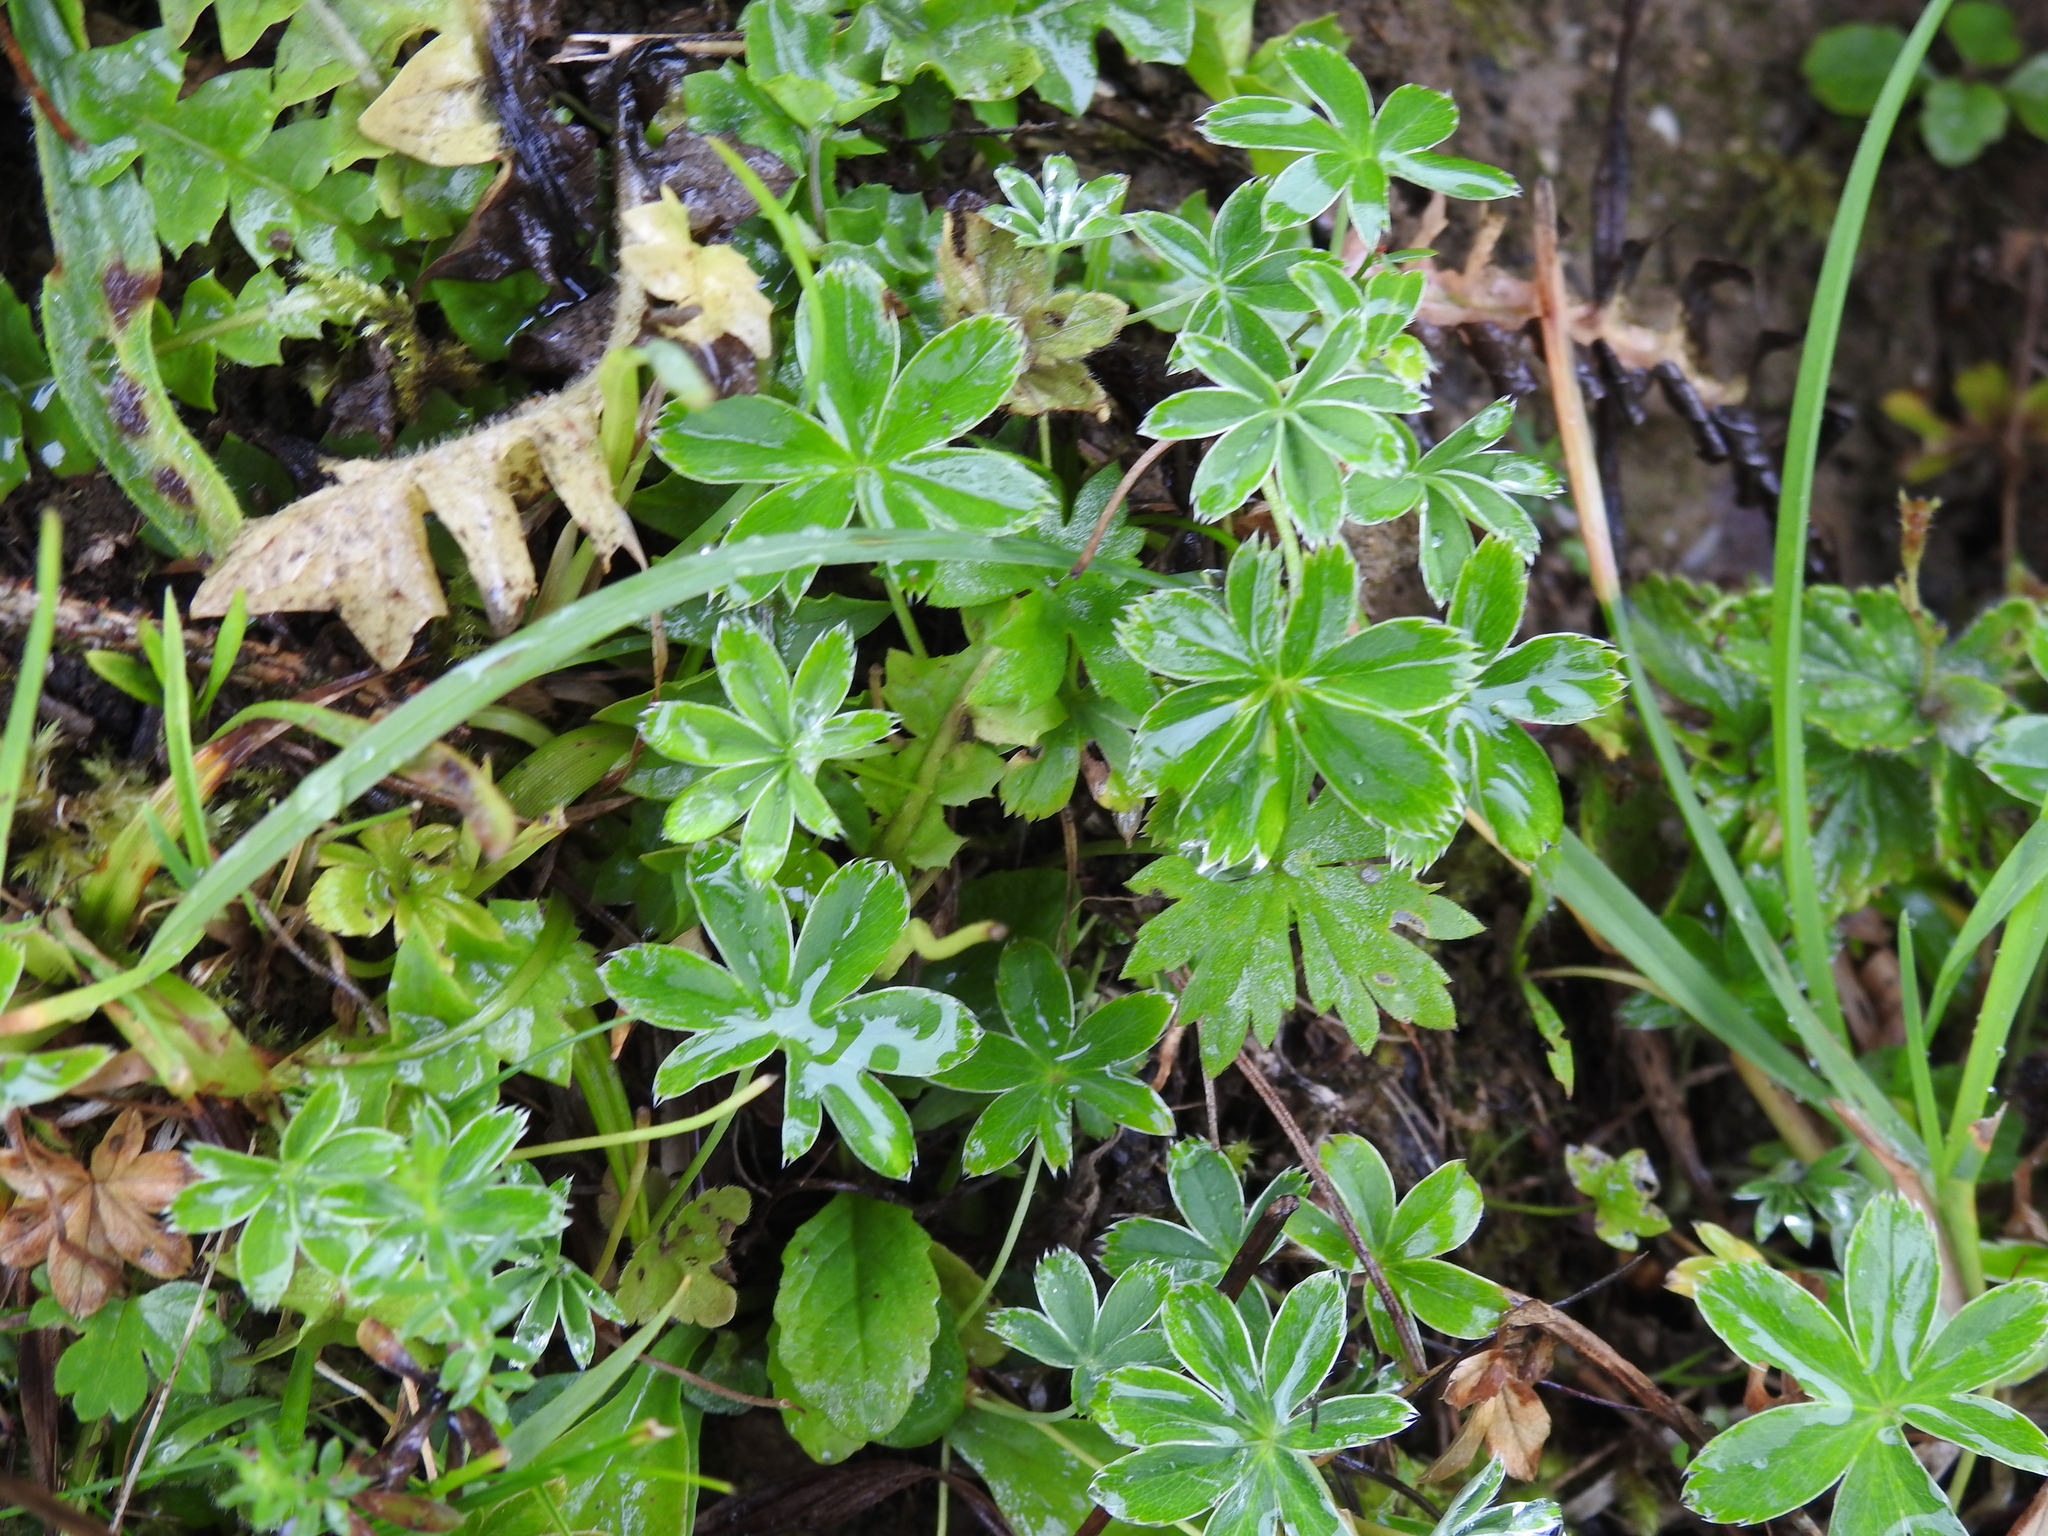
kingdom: Plantae
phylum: Tracheophyta
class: Magnoliopsida
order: Rosales
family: Rosaceae
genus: Alchemilla
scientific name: Alchemilla pallens
